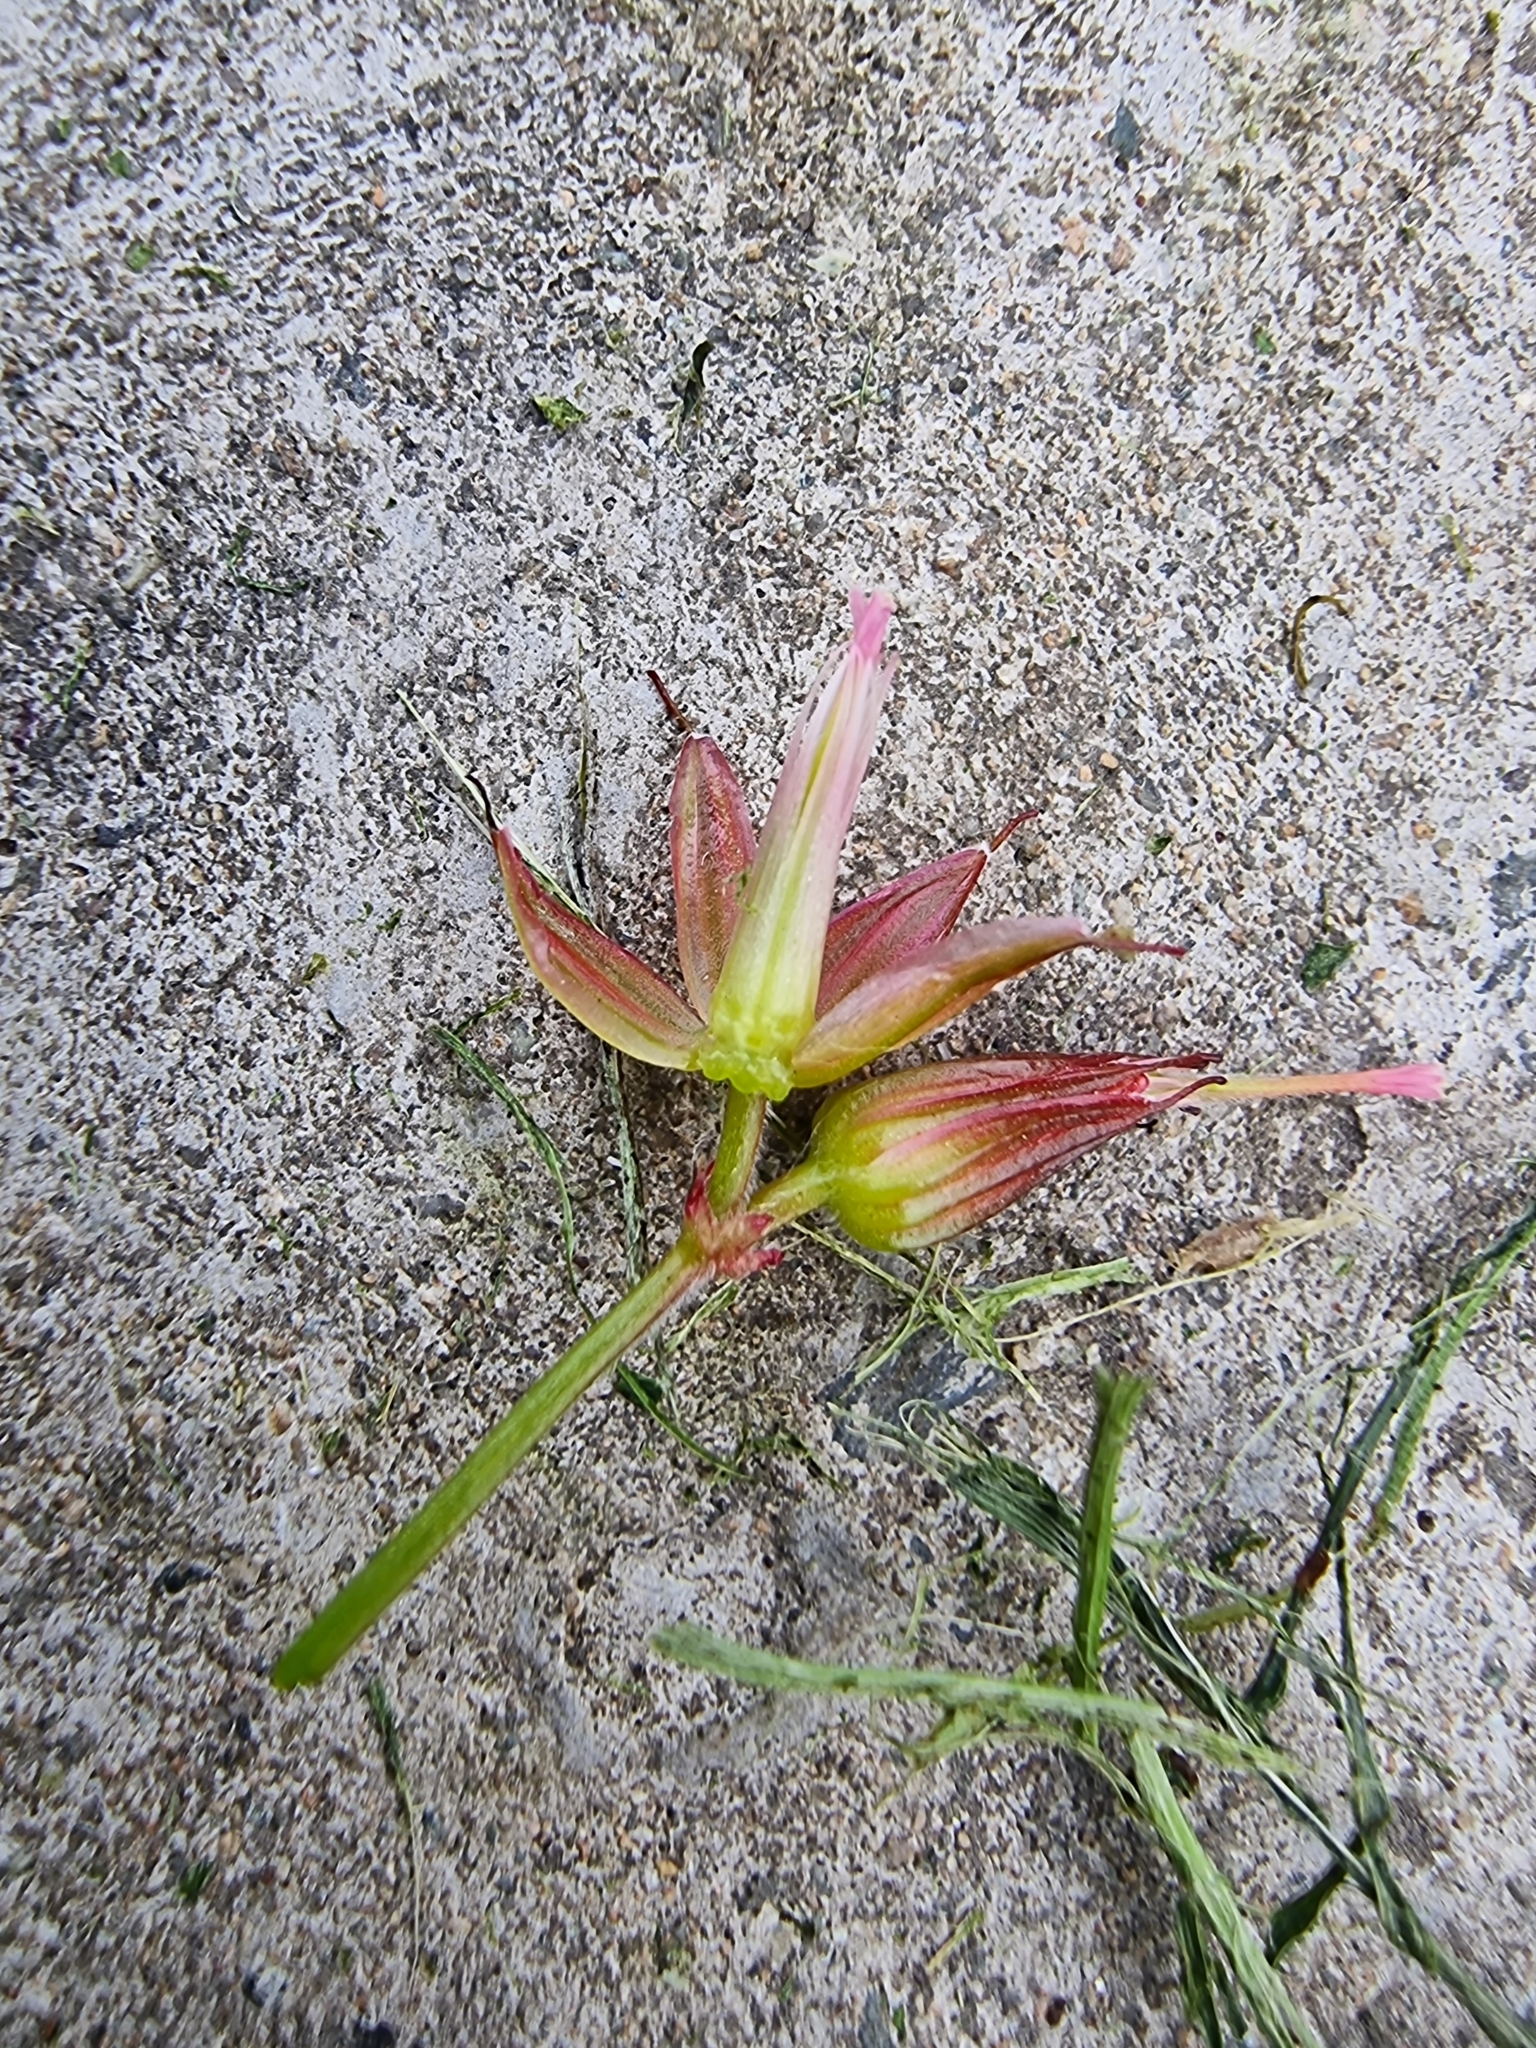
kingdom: Plantae
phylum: Tracheophyta
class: Magnoliopsida
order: Geraniales
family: Geraniaceae
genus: Geranium
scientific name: Geranium purpureum
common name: Little-robin
